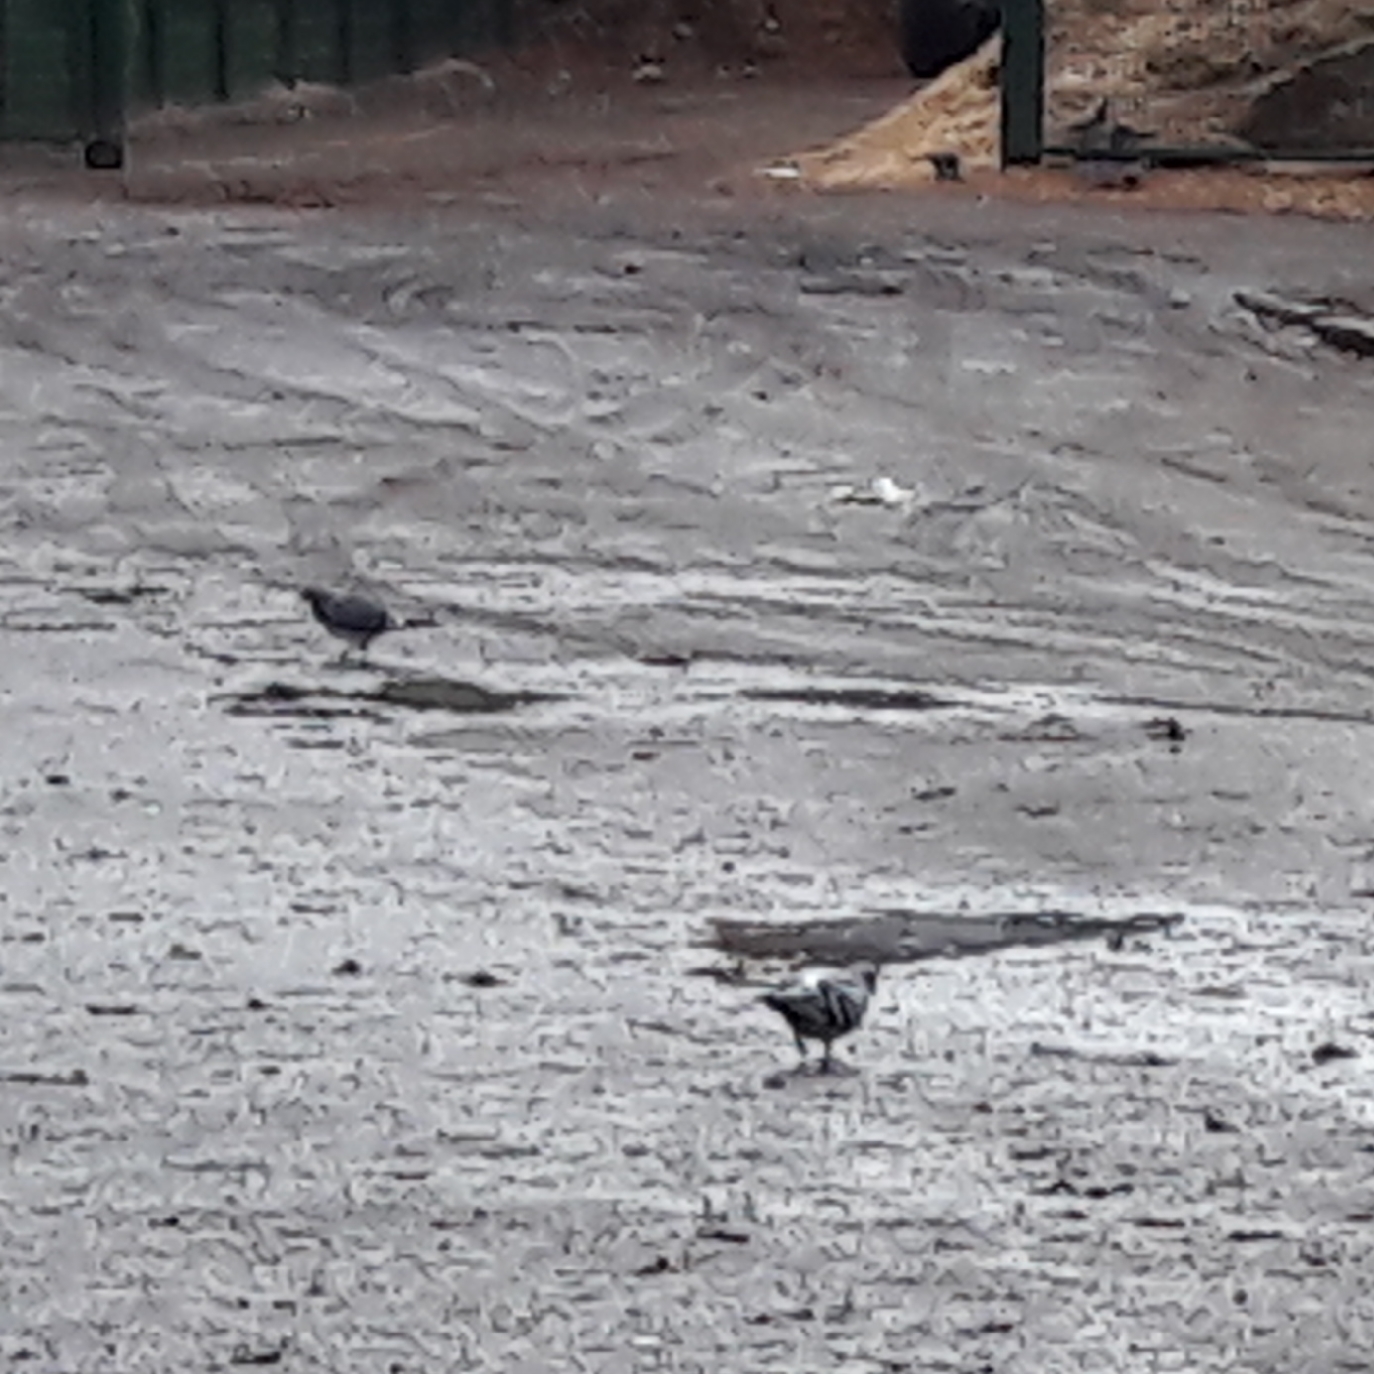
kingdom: Animalia
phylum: Chordata
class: Aves
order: Columbiformes
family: Columbidae
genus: Columba
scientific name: Columba livia
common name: Rock pigeon
